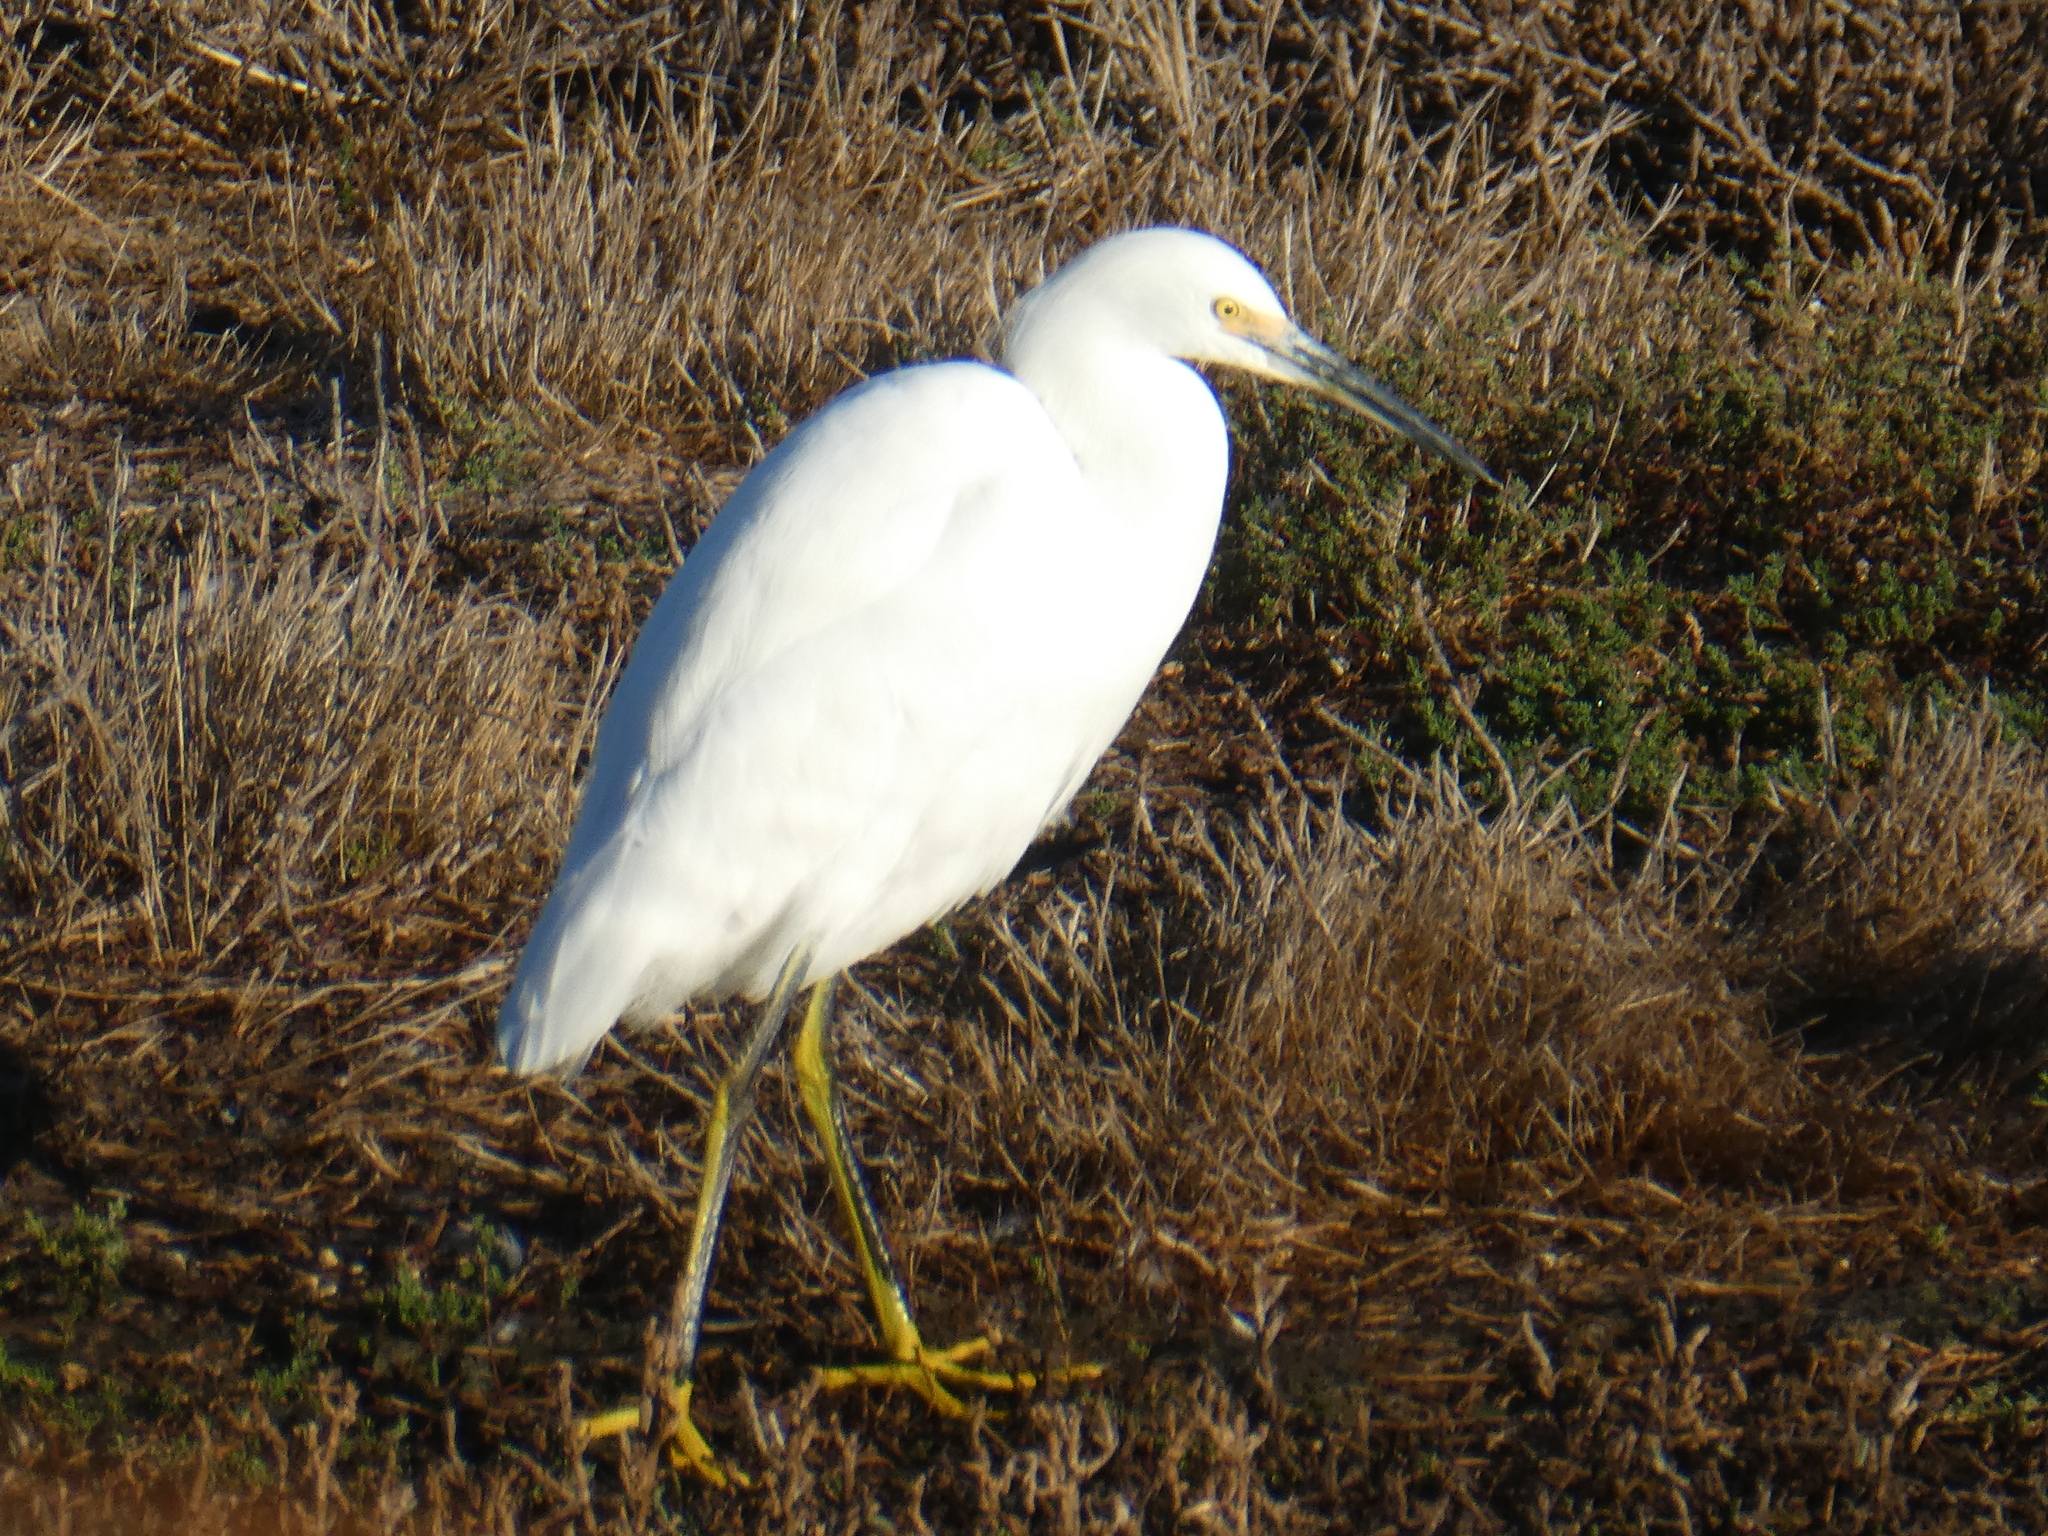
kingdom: Animalia
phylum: Chordata
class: Aves
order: Pelecaniformes
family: Ardeidae
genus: Egretta
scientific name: Egretta thula
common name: Snowy egret
